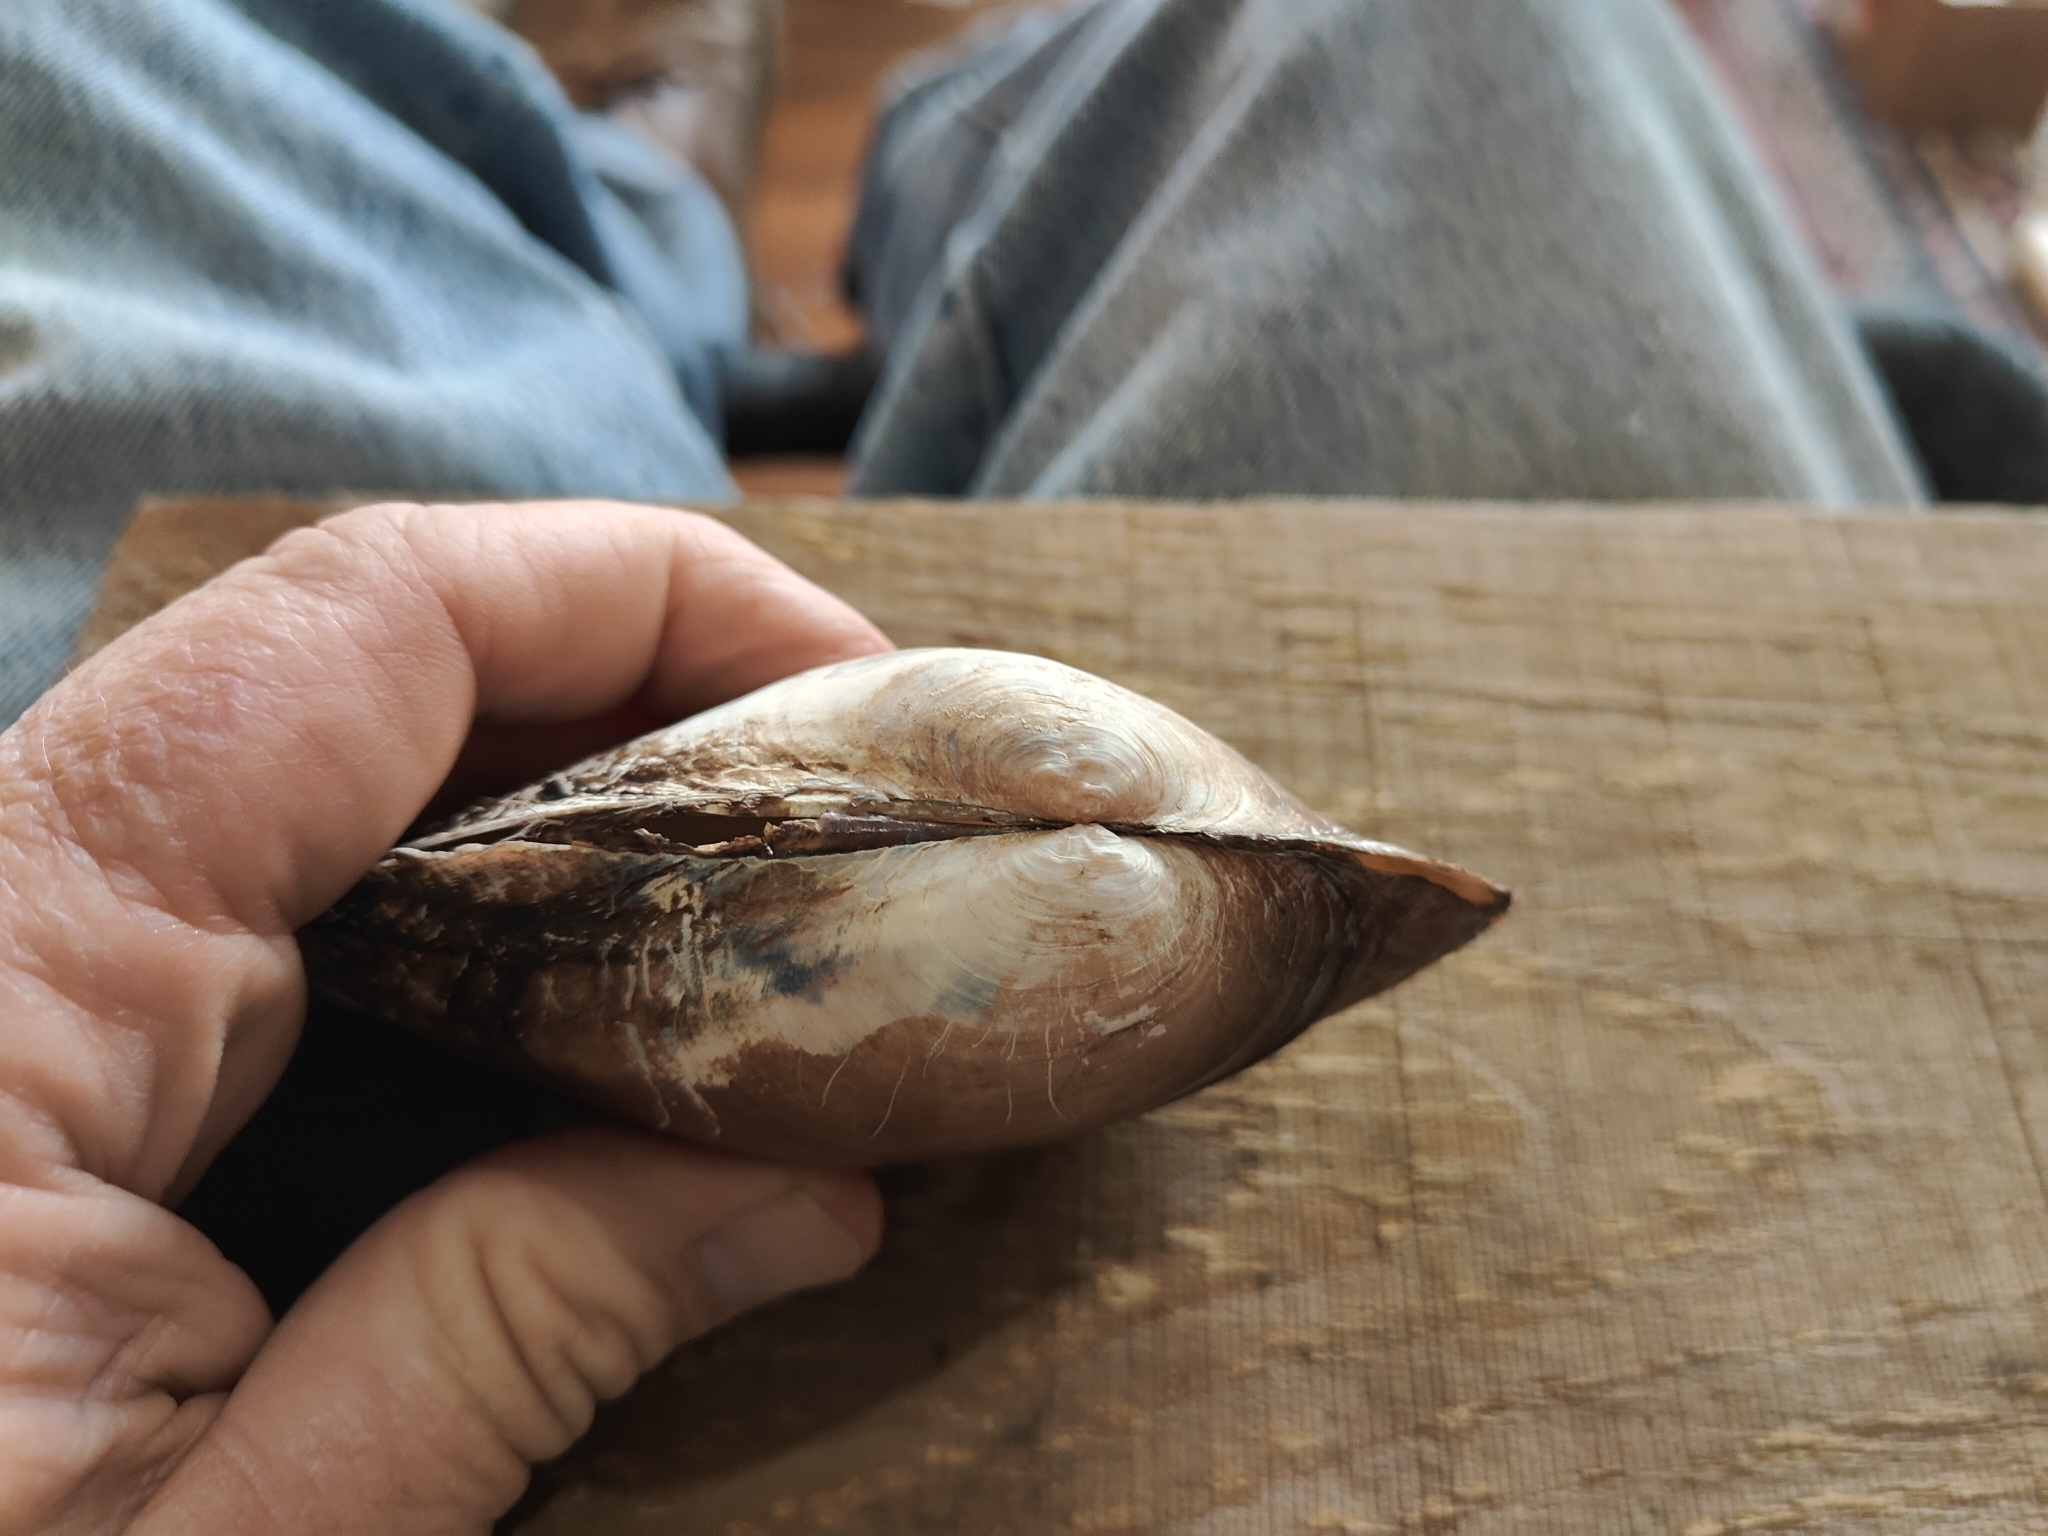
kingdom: Animalia
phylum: Mollusca
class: Bivalvia
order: Unionida
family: Unionidae
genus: Pyganodon
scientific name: Pyganodon grandis
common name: Giant floater
